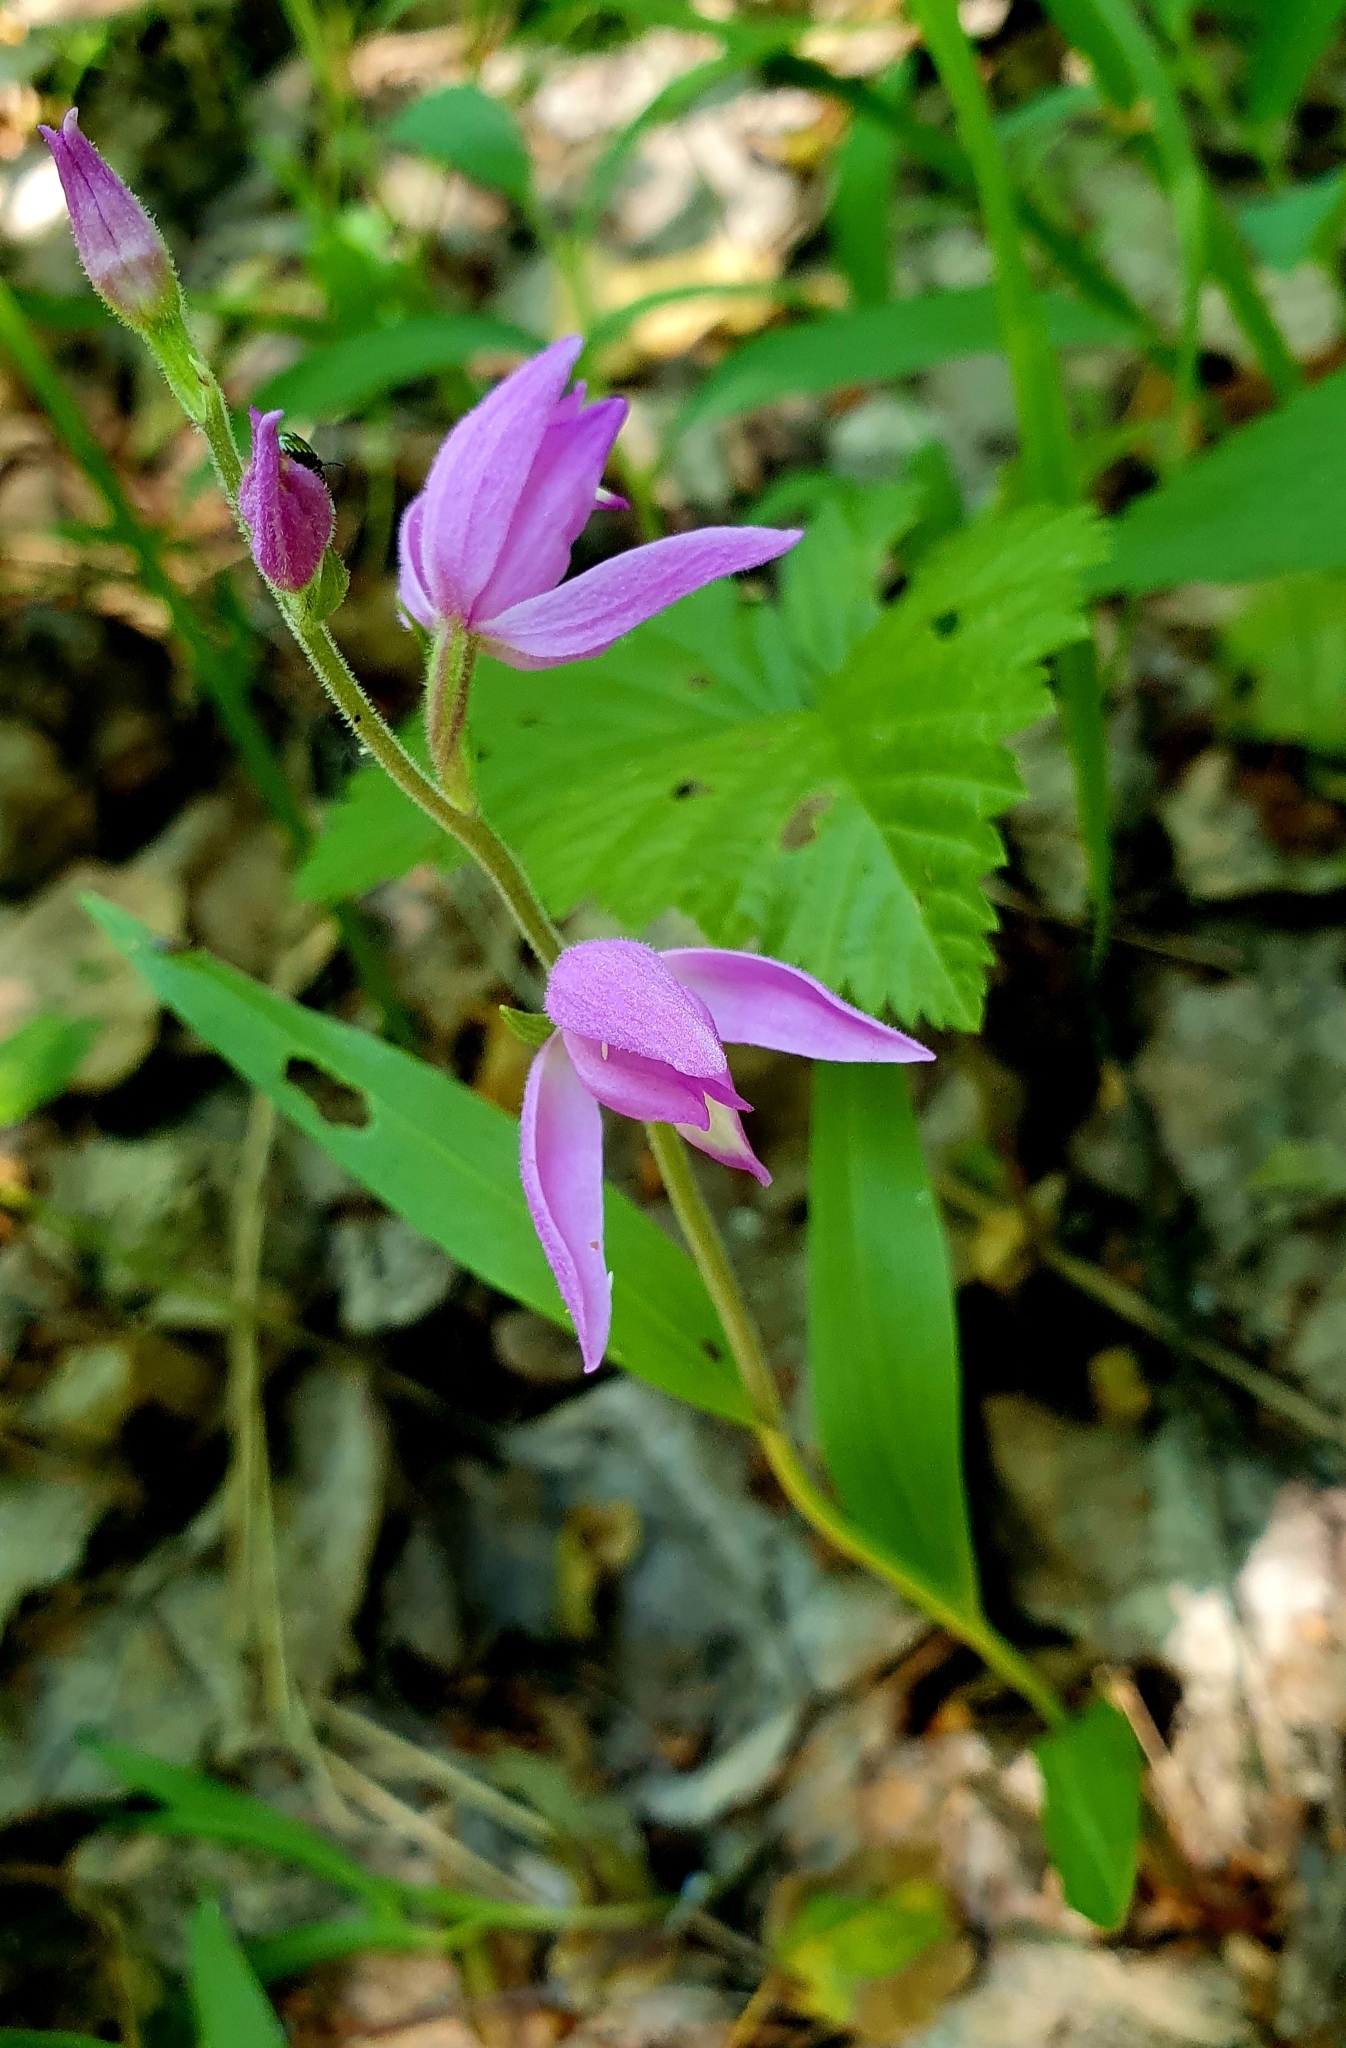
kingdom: Plantae
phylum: Tracheophyta
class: Liliopsida
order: Asparagales
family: Orchidaceae
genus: Cephalanthera
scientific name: Cephalanthera rubra
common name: Red helleborine
